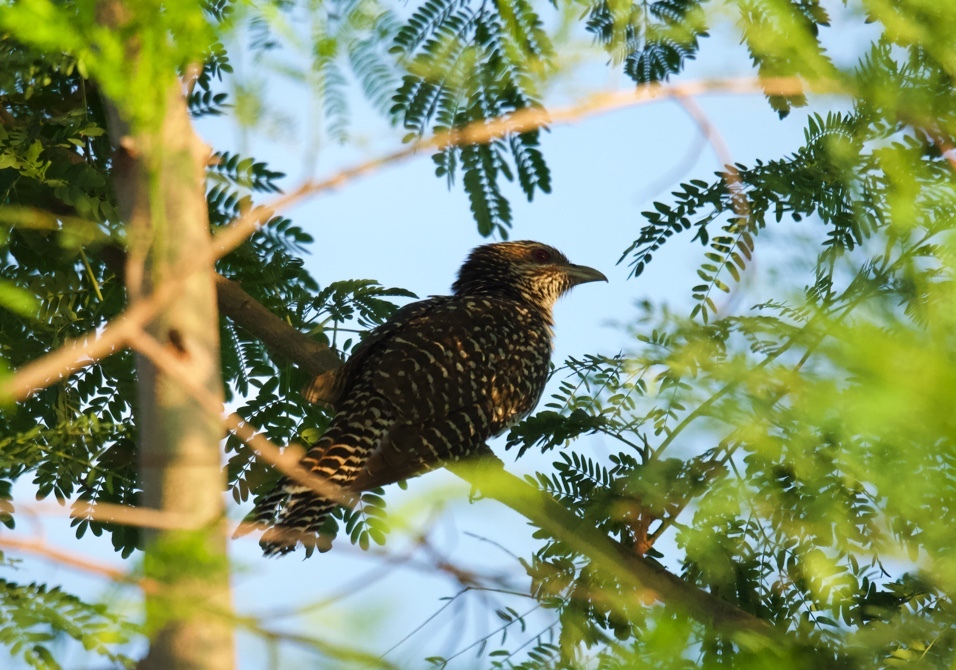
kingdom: Animalia
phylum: Chordata
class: Aves
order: Cuculiformes
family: Cuculidae
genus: Eudynamys
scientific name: Eudynamys scolopaceus
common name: Asian koel
